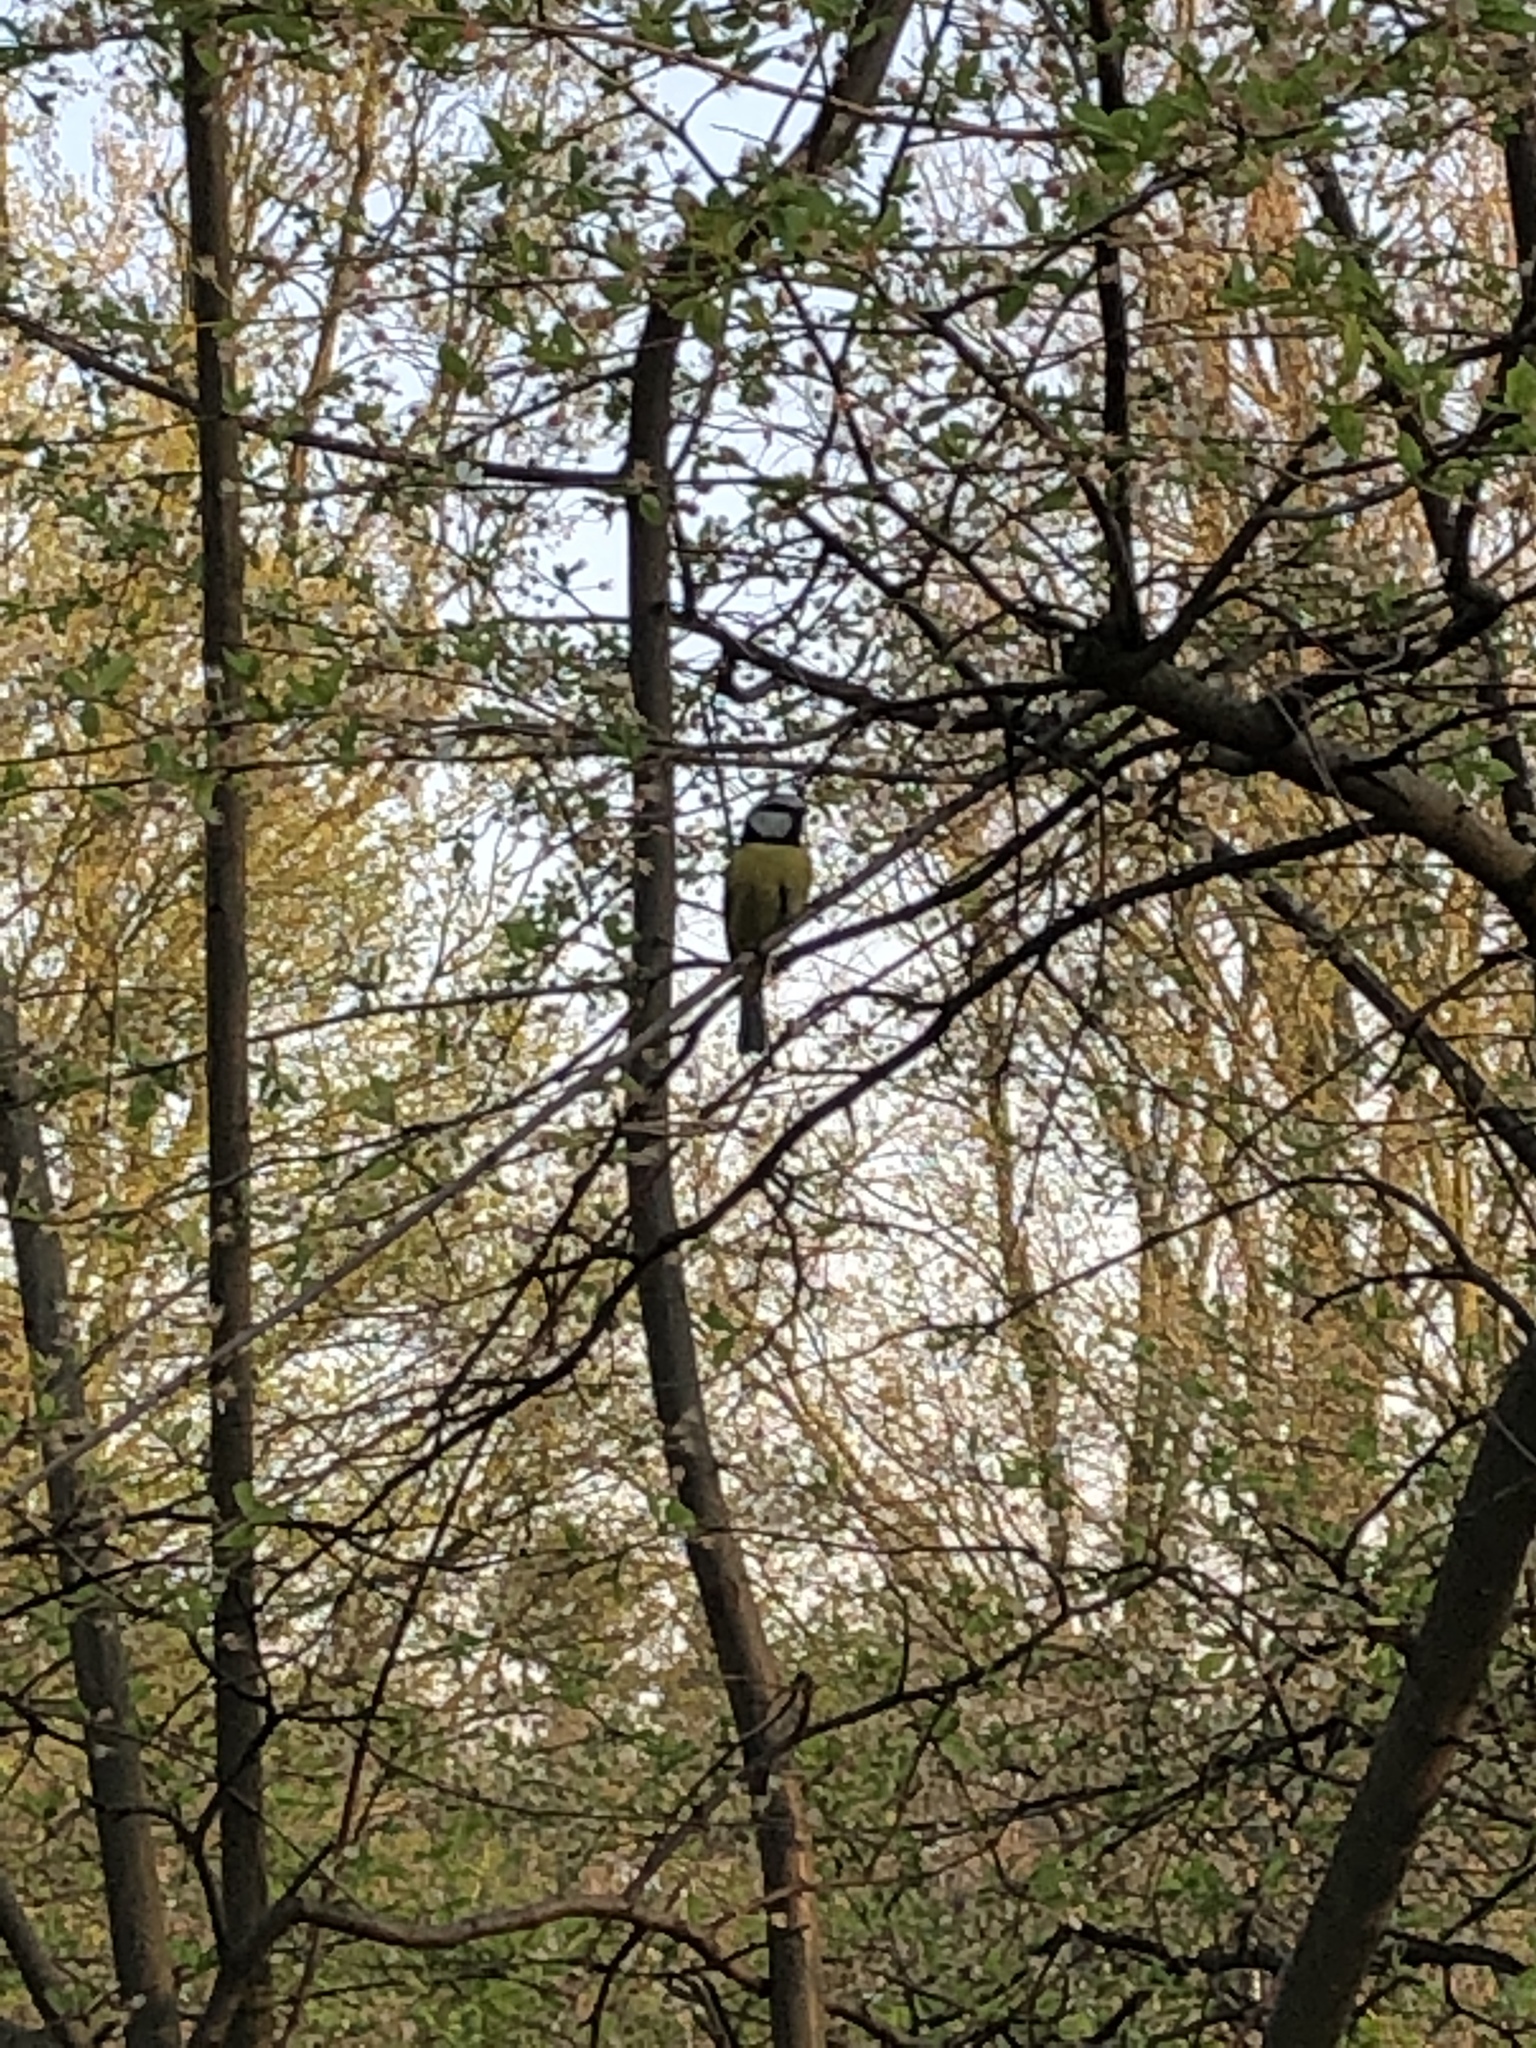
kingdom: Animalia
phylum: Chordata
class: Aves
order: Passeriformes
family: Paridae
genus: Cyanistes
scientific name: Cyanistes caeruleus
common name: Eurasian blue tit
